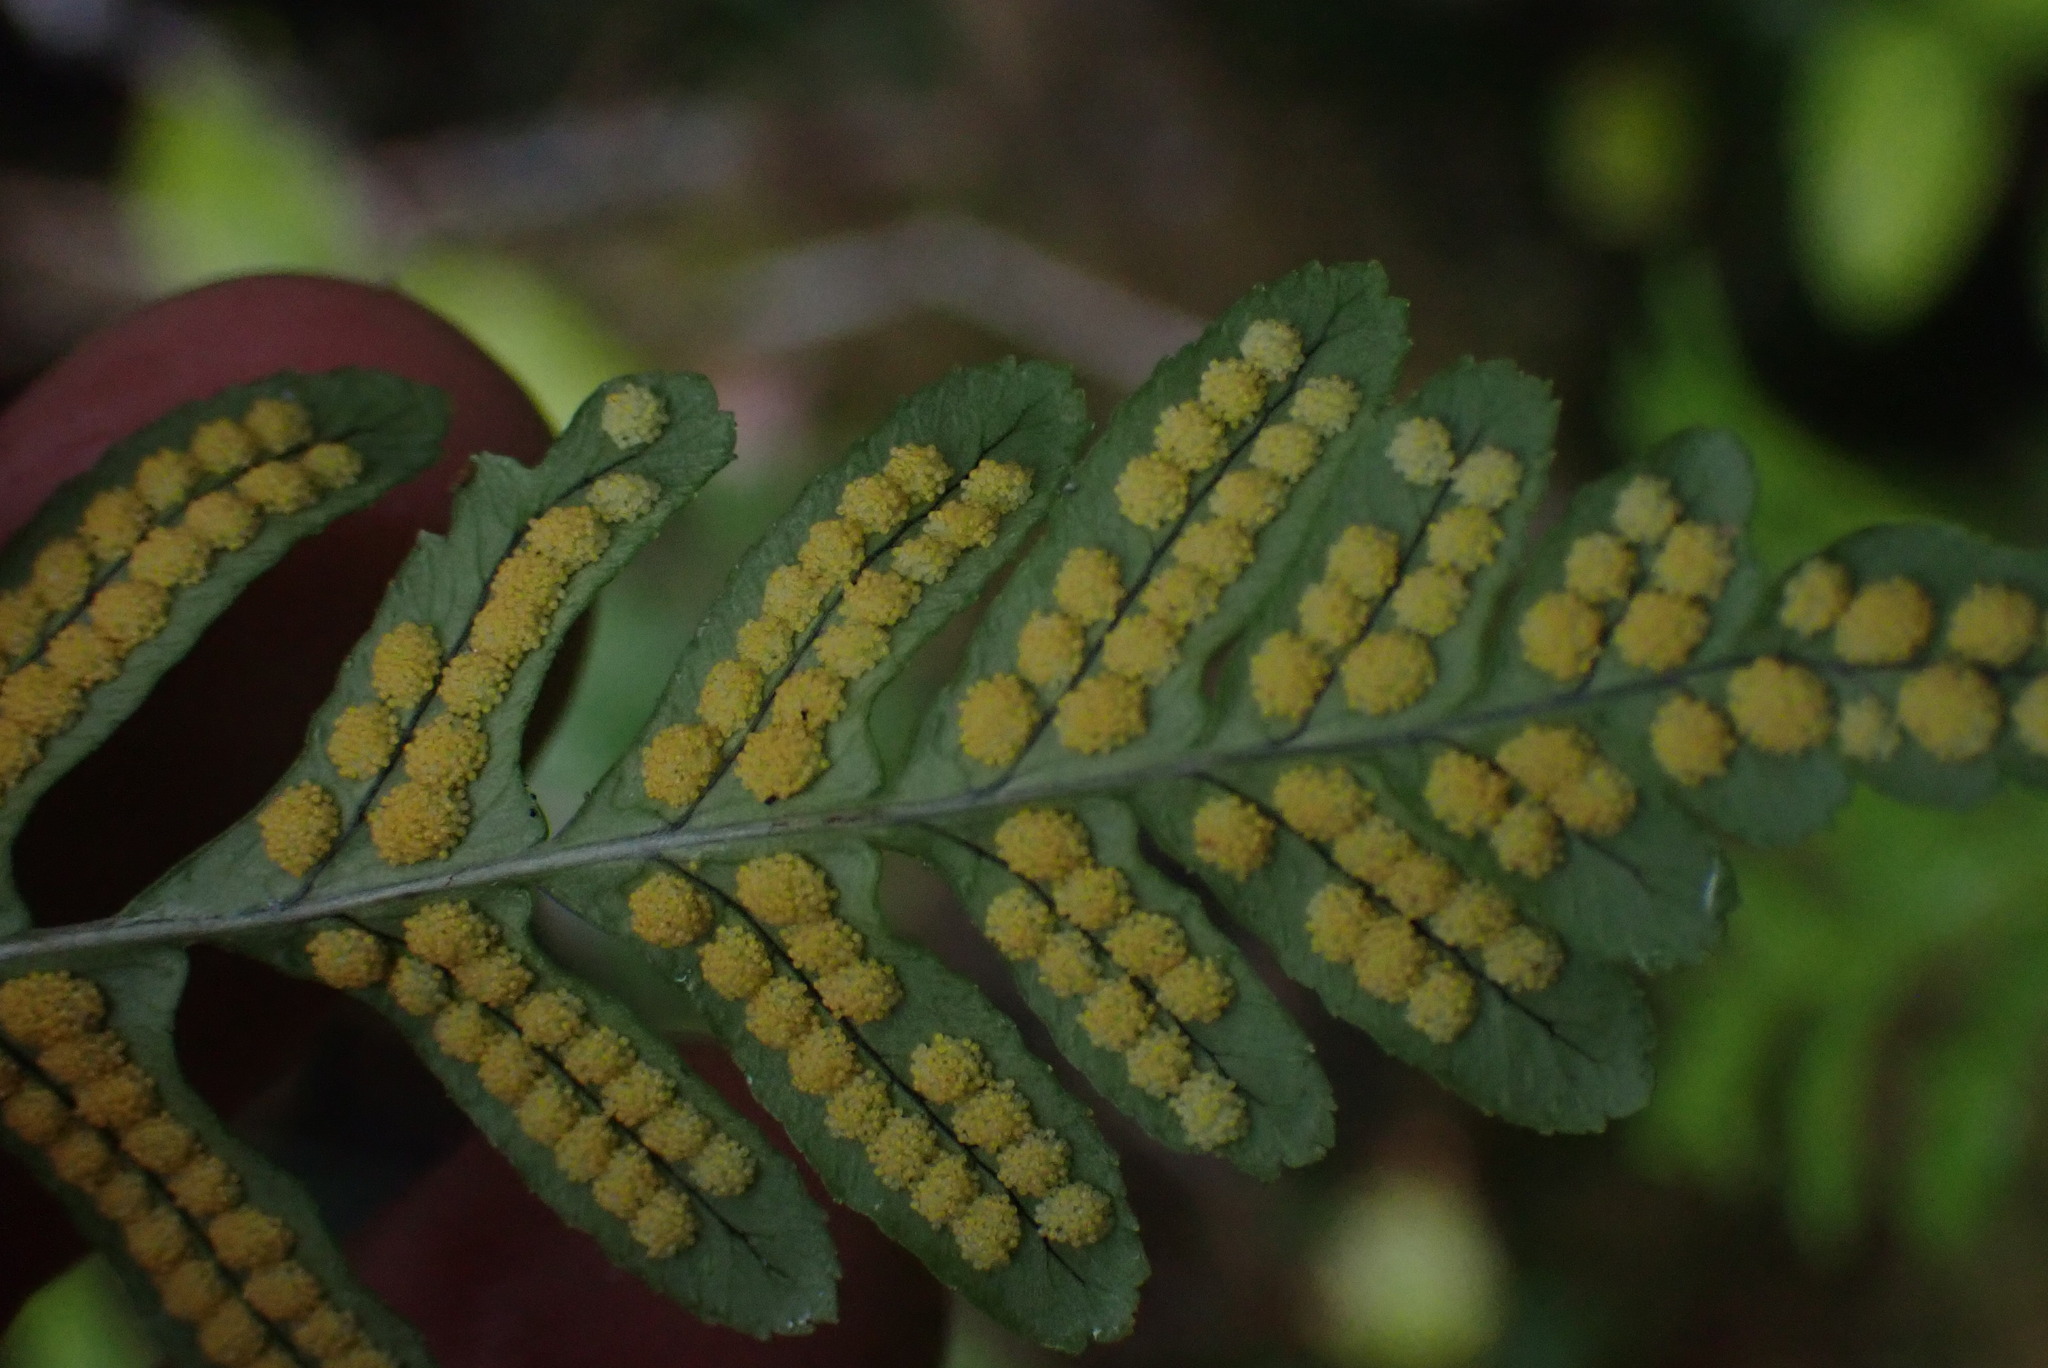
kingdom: Plantae
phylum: Tracheophyta
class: Polypodiopsida
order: Polypodiales
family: Polypodiaceae
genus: Polypodium
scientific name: Polypodium glycyrrhiza
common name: Licorice fern
